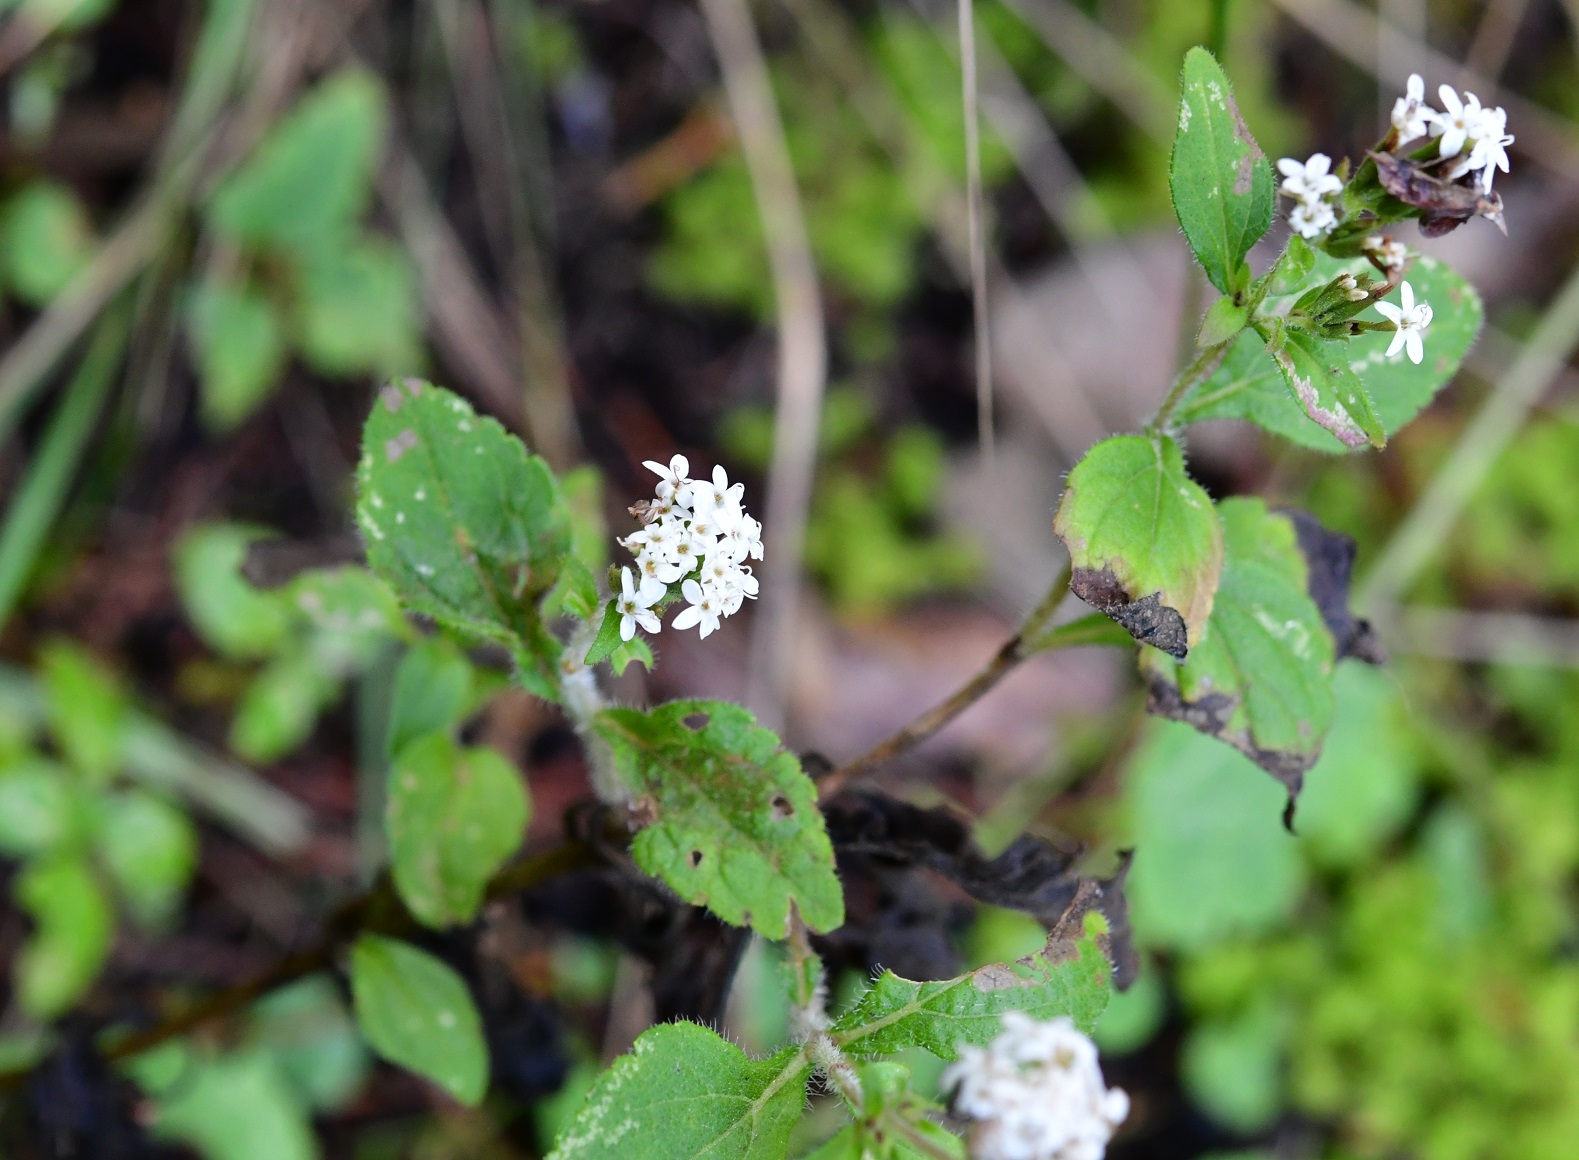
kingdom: Plantae
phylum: Tracheophyta
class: Magnoliopsida
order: Asterales
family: Asteraceae
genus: Stevia
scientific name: Stevia tomentosa
